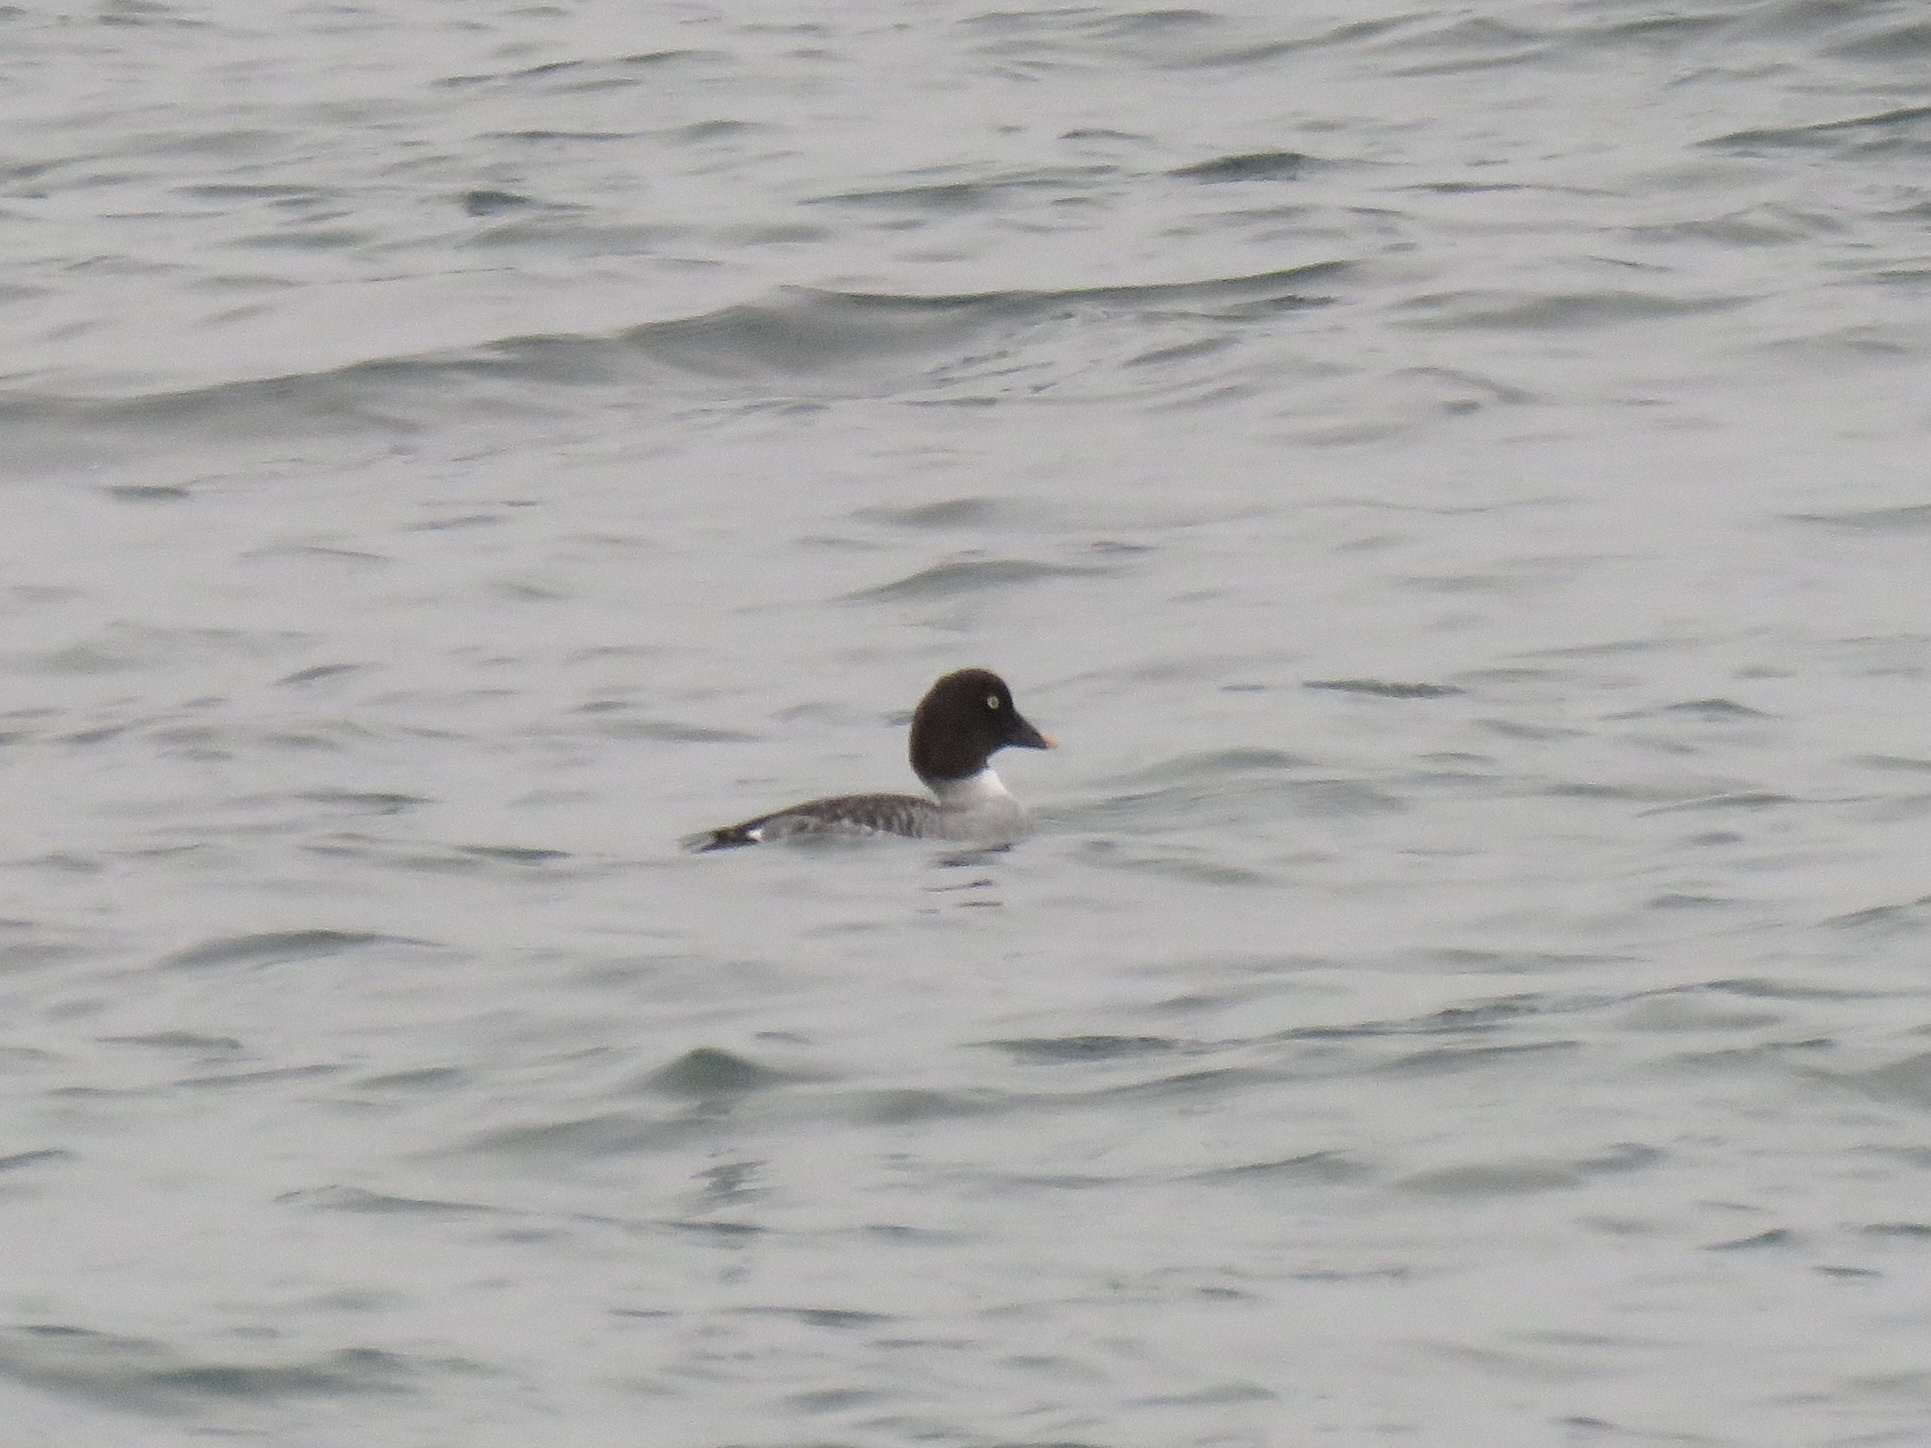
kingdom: Animalia
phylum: Chordata
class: Aves
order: Anseriformes
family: Anatidae
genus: Bucephala
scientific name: Bucephala clangula
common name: Common goldeneye
